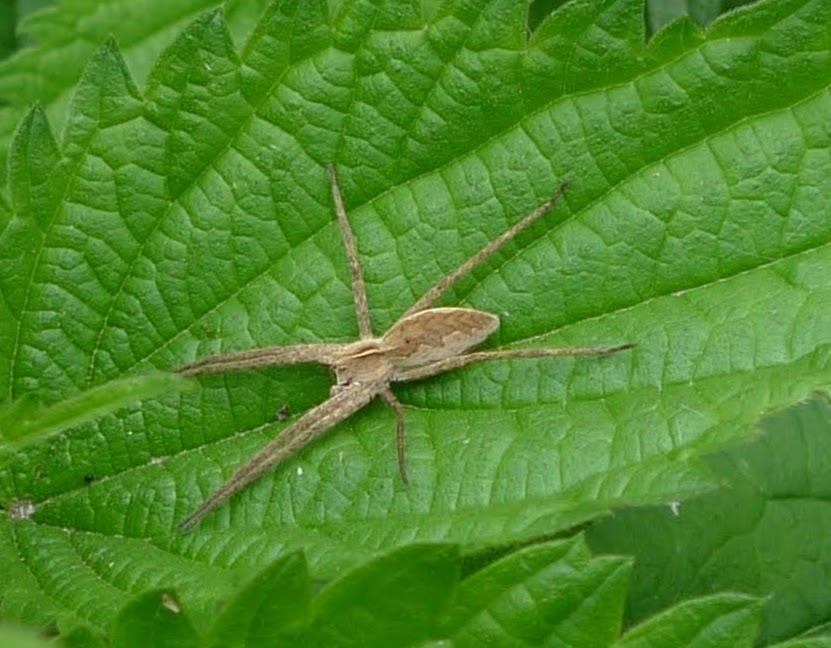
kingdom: Animalia
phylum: Arthropoda
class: Arachnida
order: Araneae
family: Pisauridae
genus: Pisaura
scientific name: Pisaura mirabilis
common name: Tent spider
